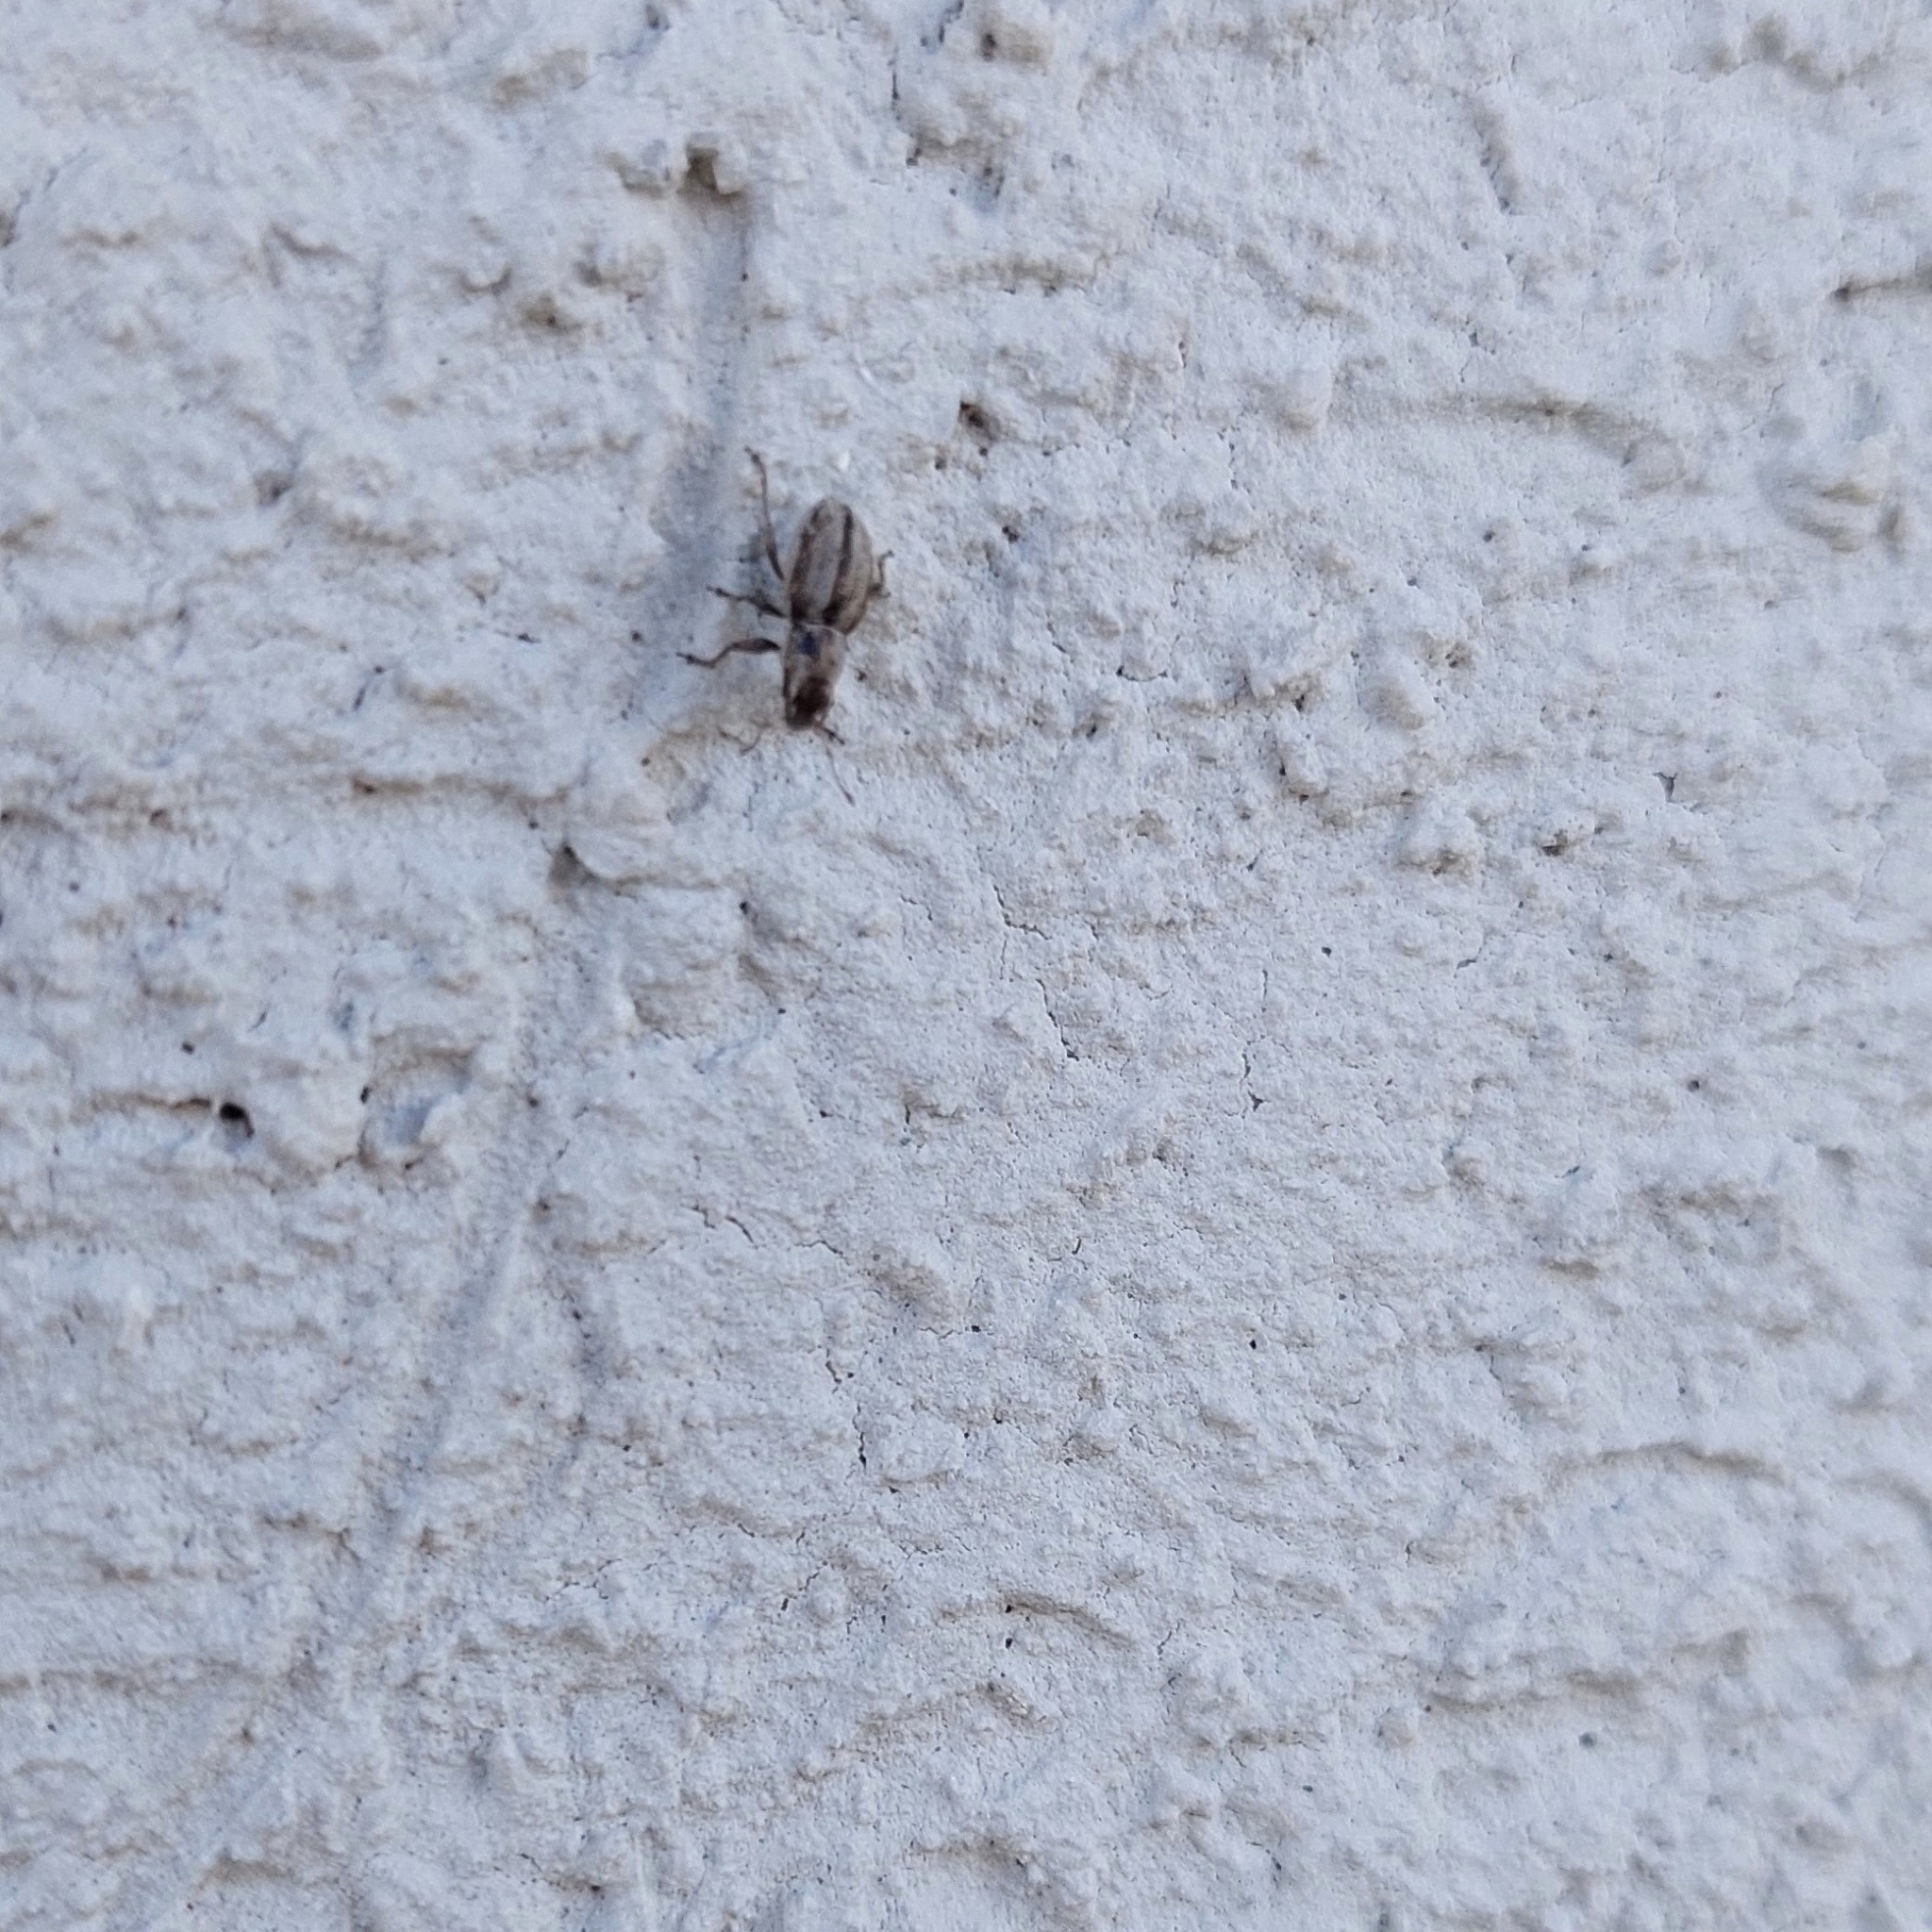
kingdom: Animalia
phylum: Arthropoda
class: Insecta
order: Coleoptera
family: Curculionidae
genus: Atrichonotus
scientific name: Atrichonotus taeniatulus
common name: Small lucerne weevil
